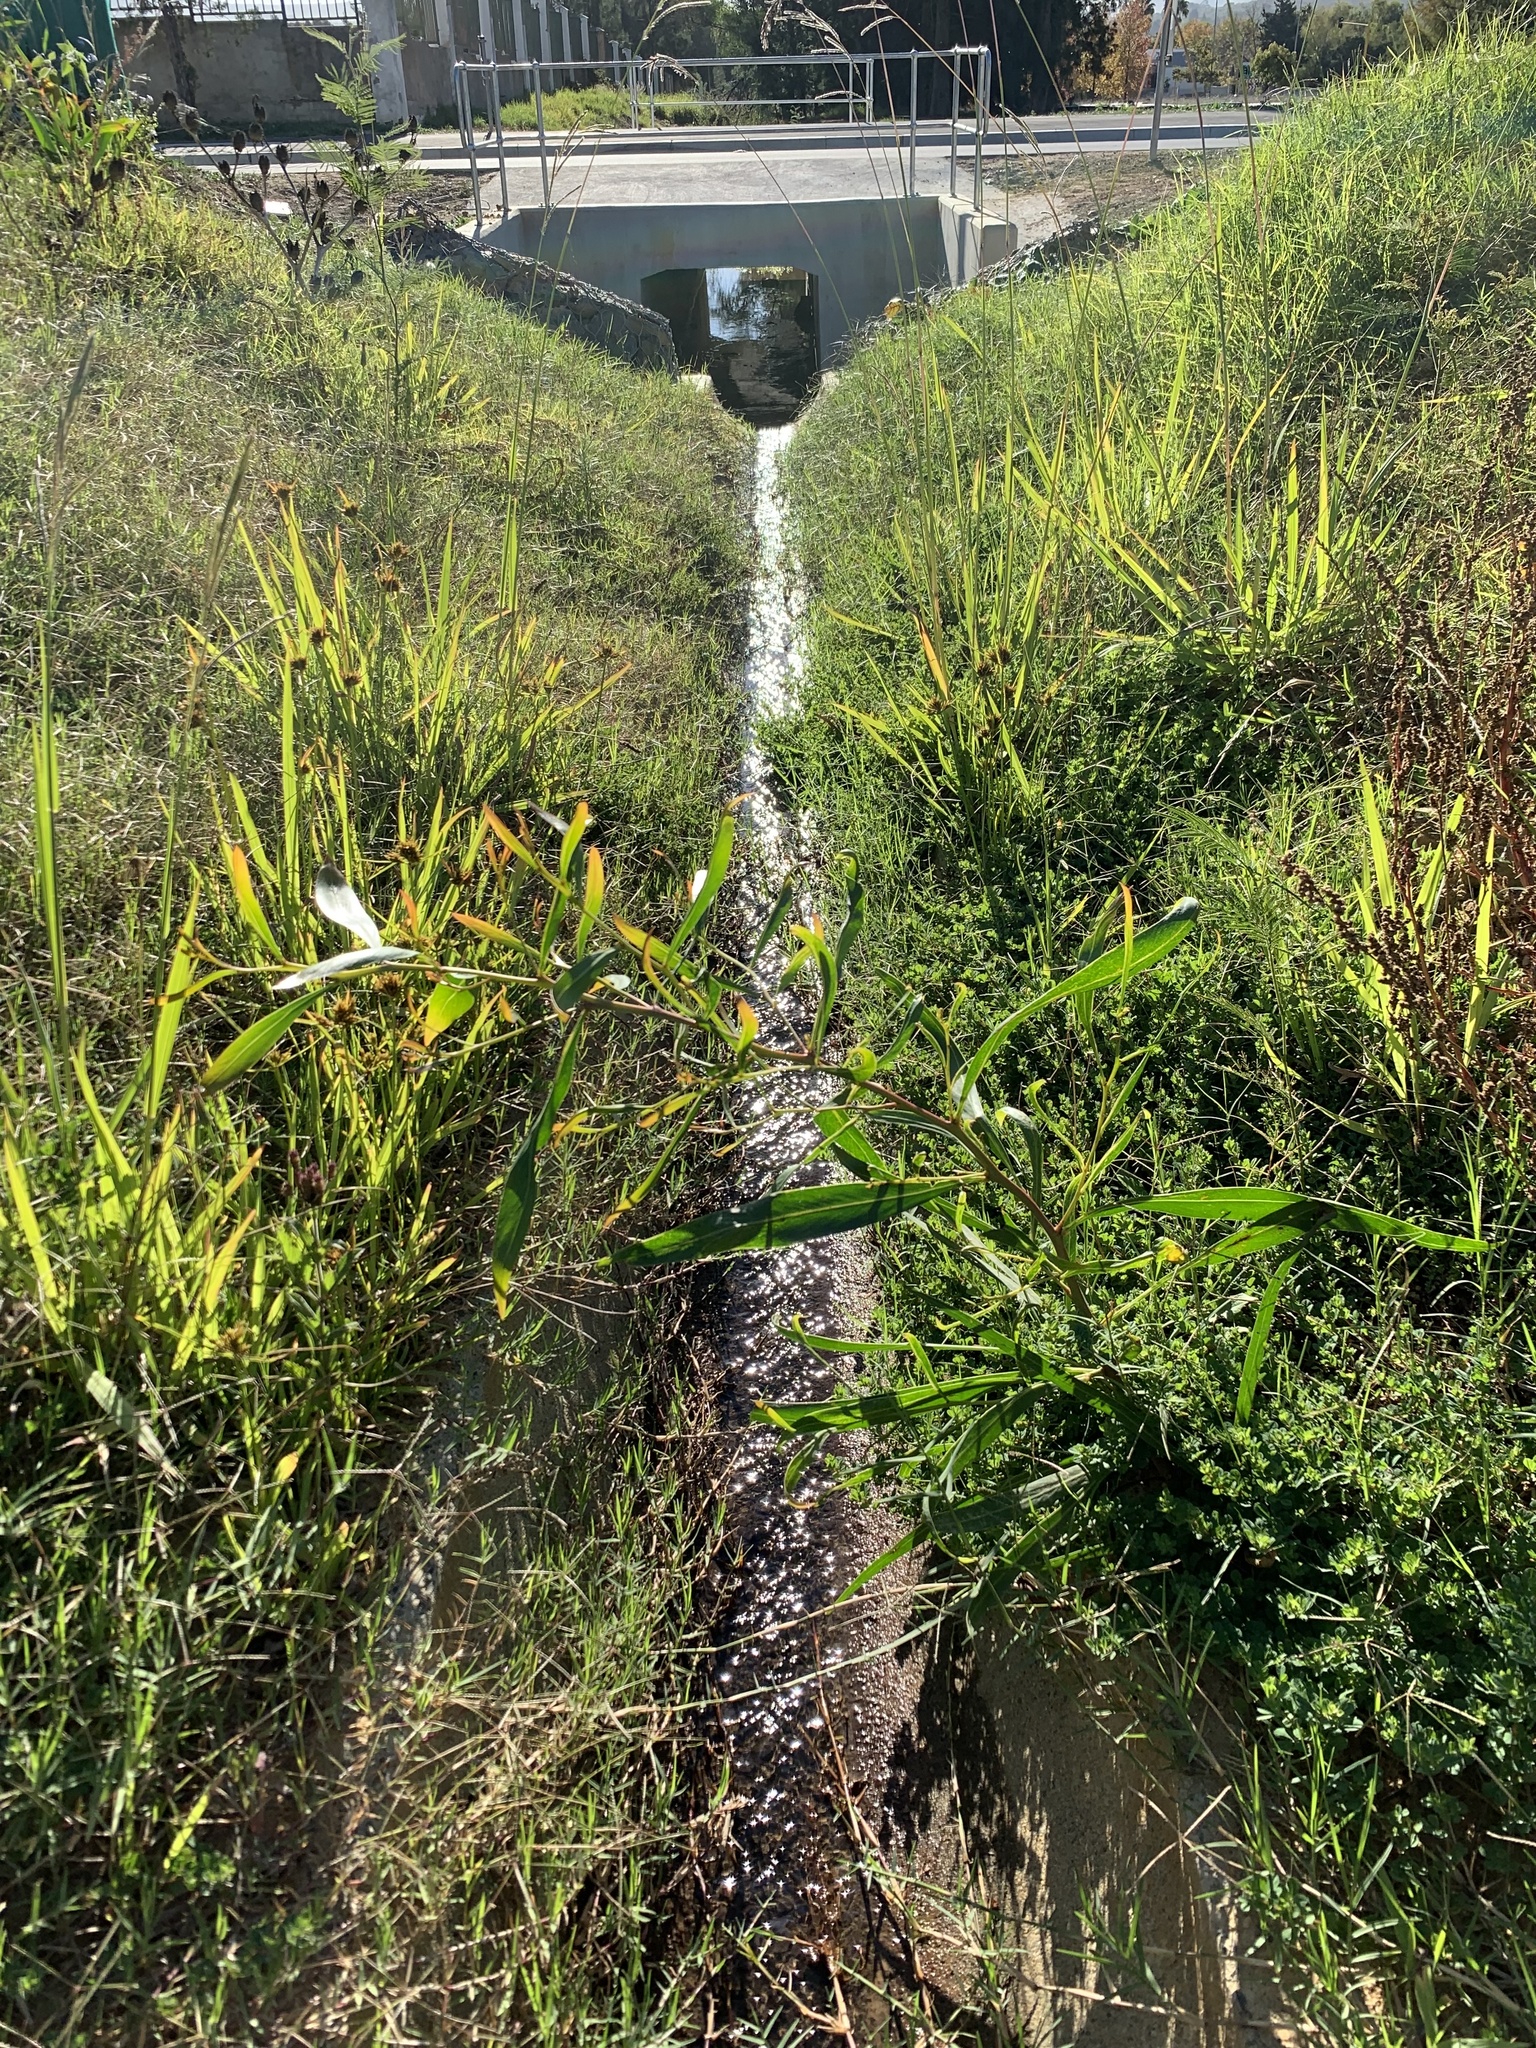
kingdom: Plantae
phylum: Tracheophyta
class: Magnoliopsida
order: Fabales
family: Fabaceae
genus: Acacia
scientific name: Acacia saligna
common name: Orange wattle
